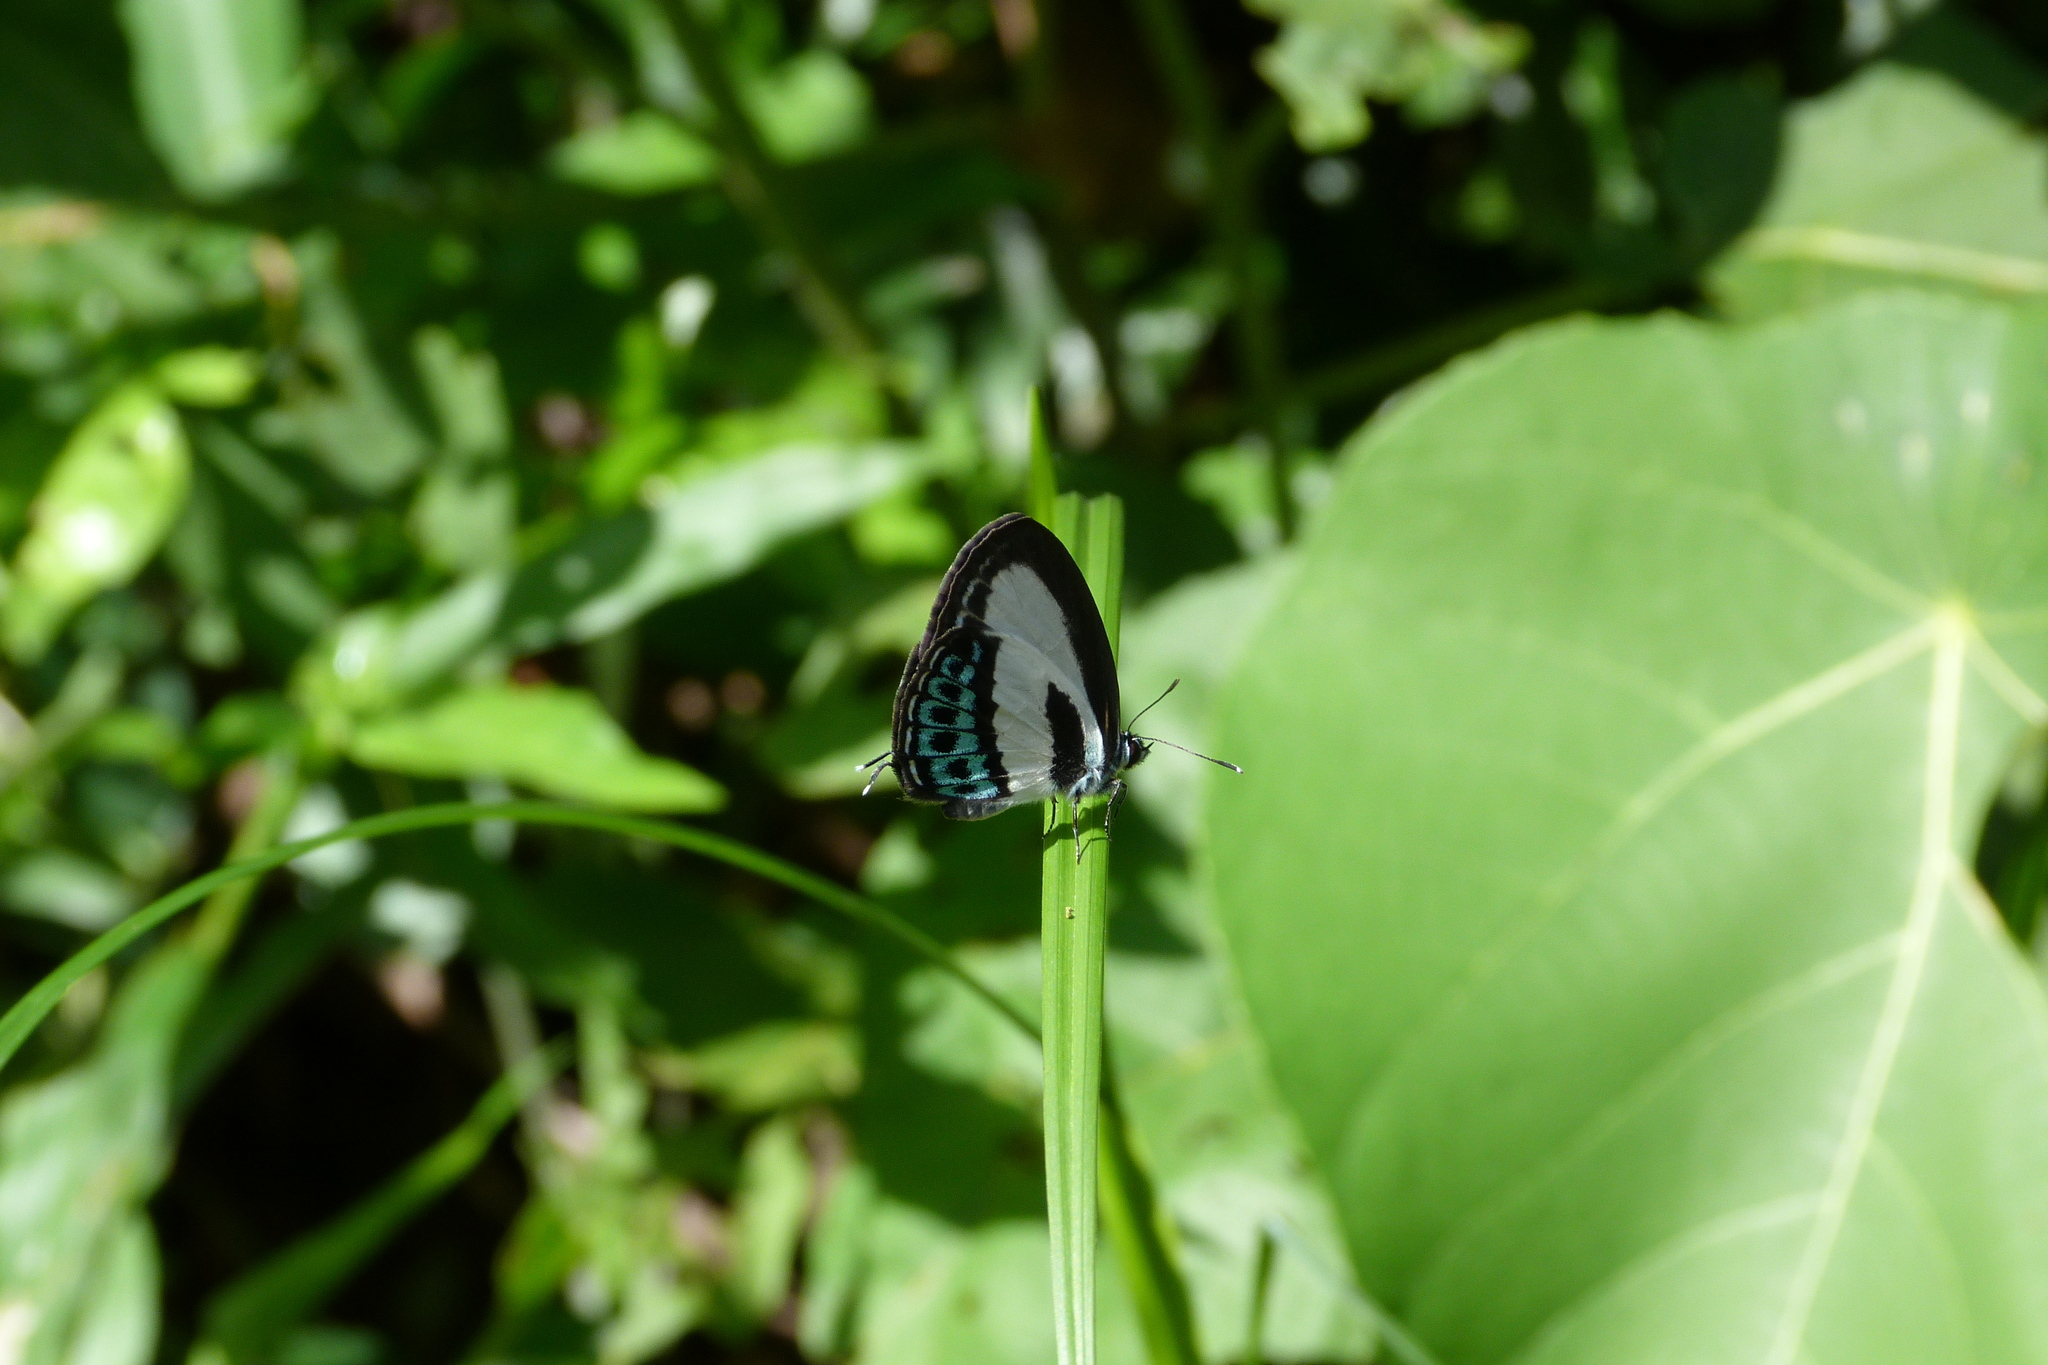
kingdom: Animalia
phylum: Arthropoda
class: Insecta
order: Lepidoptera
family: Lycaenidae
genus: Nacaduba
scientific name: Nacaduba cyanea
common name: Tailed green-banded line blue
